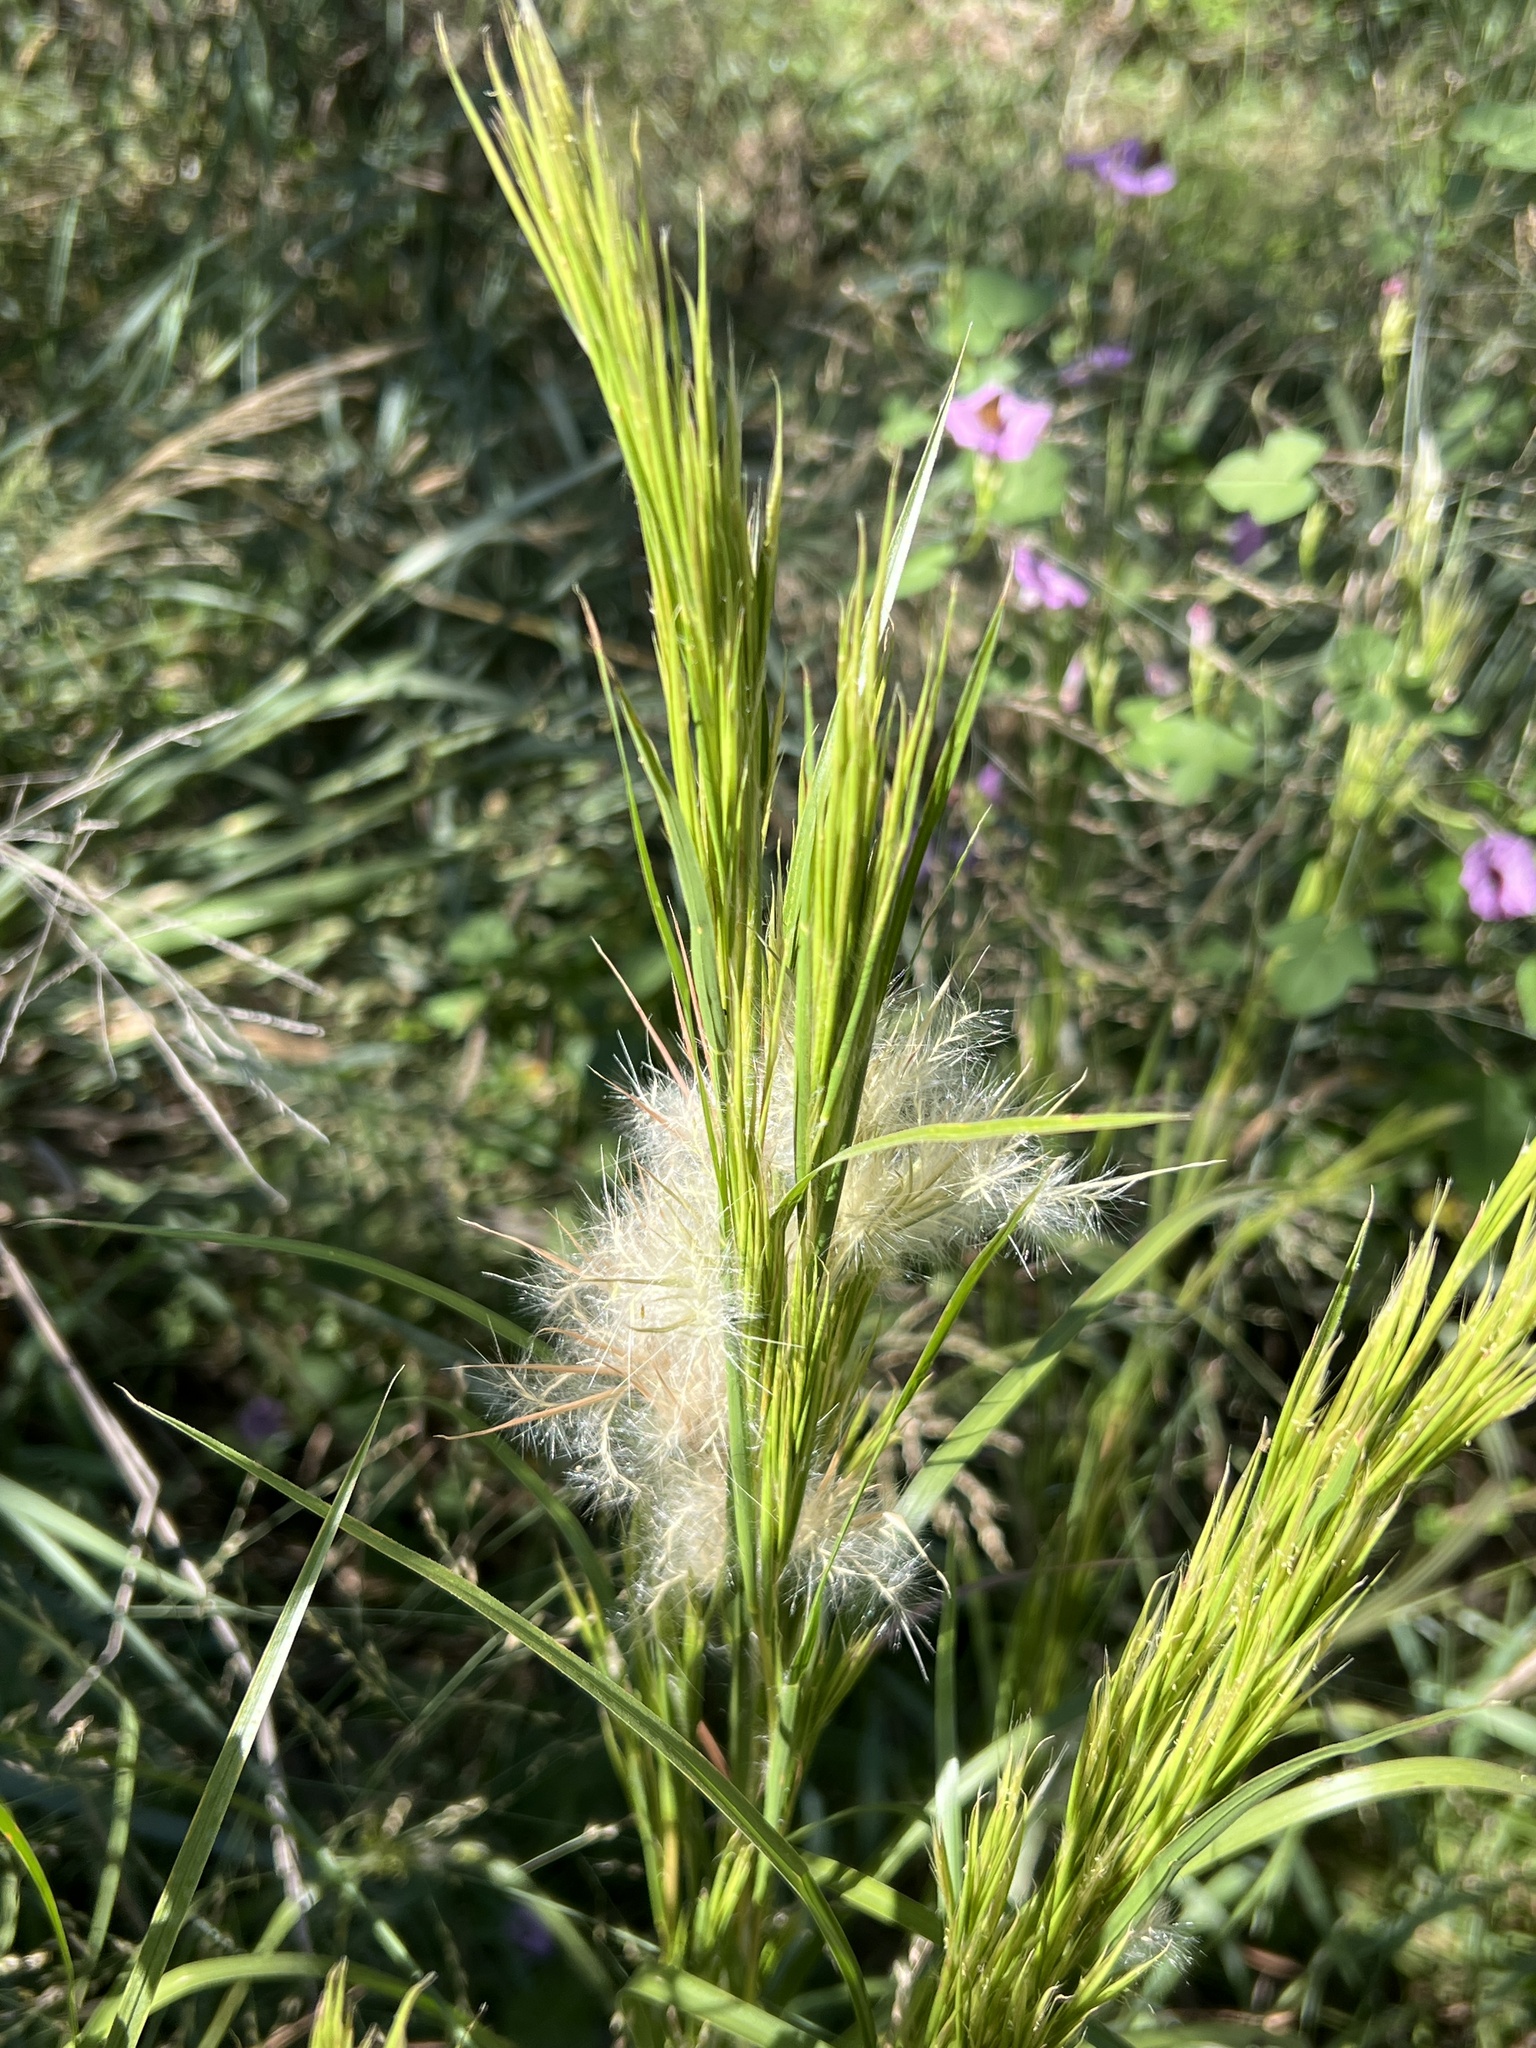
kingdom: Plantae
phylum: Tracheophyta
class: Liliopsida
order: Poales
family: Poaceae
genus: Andropogon
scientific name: Andropogon tenuispatheus
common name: Bushy bluestem
